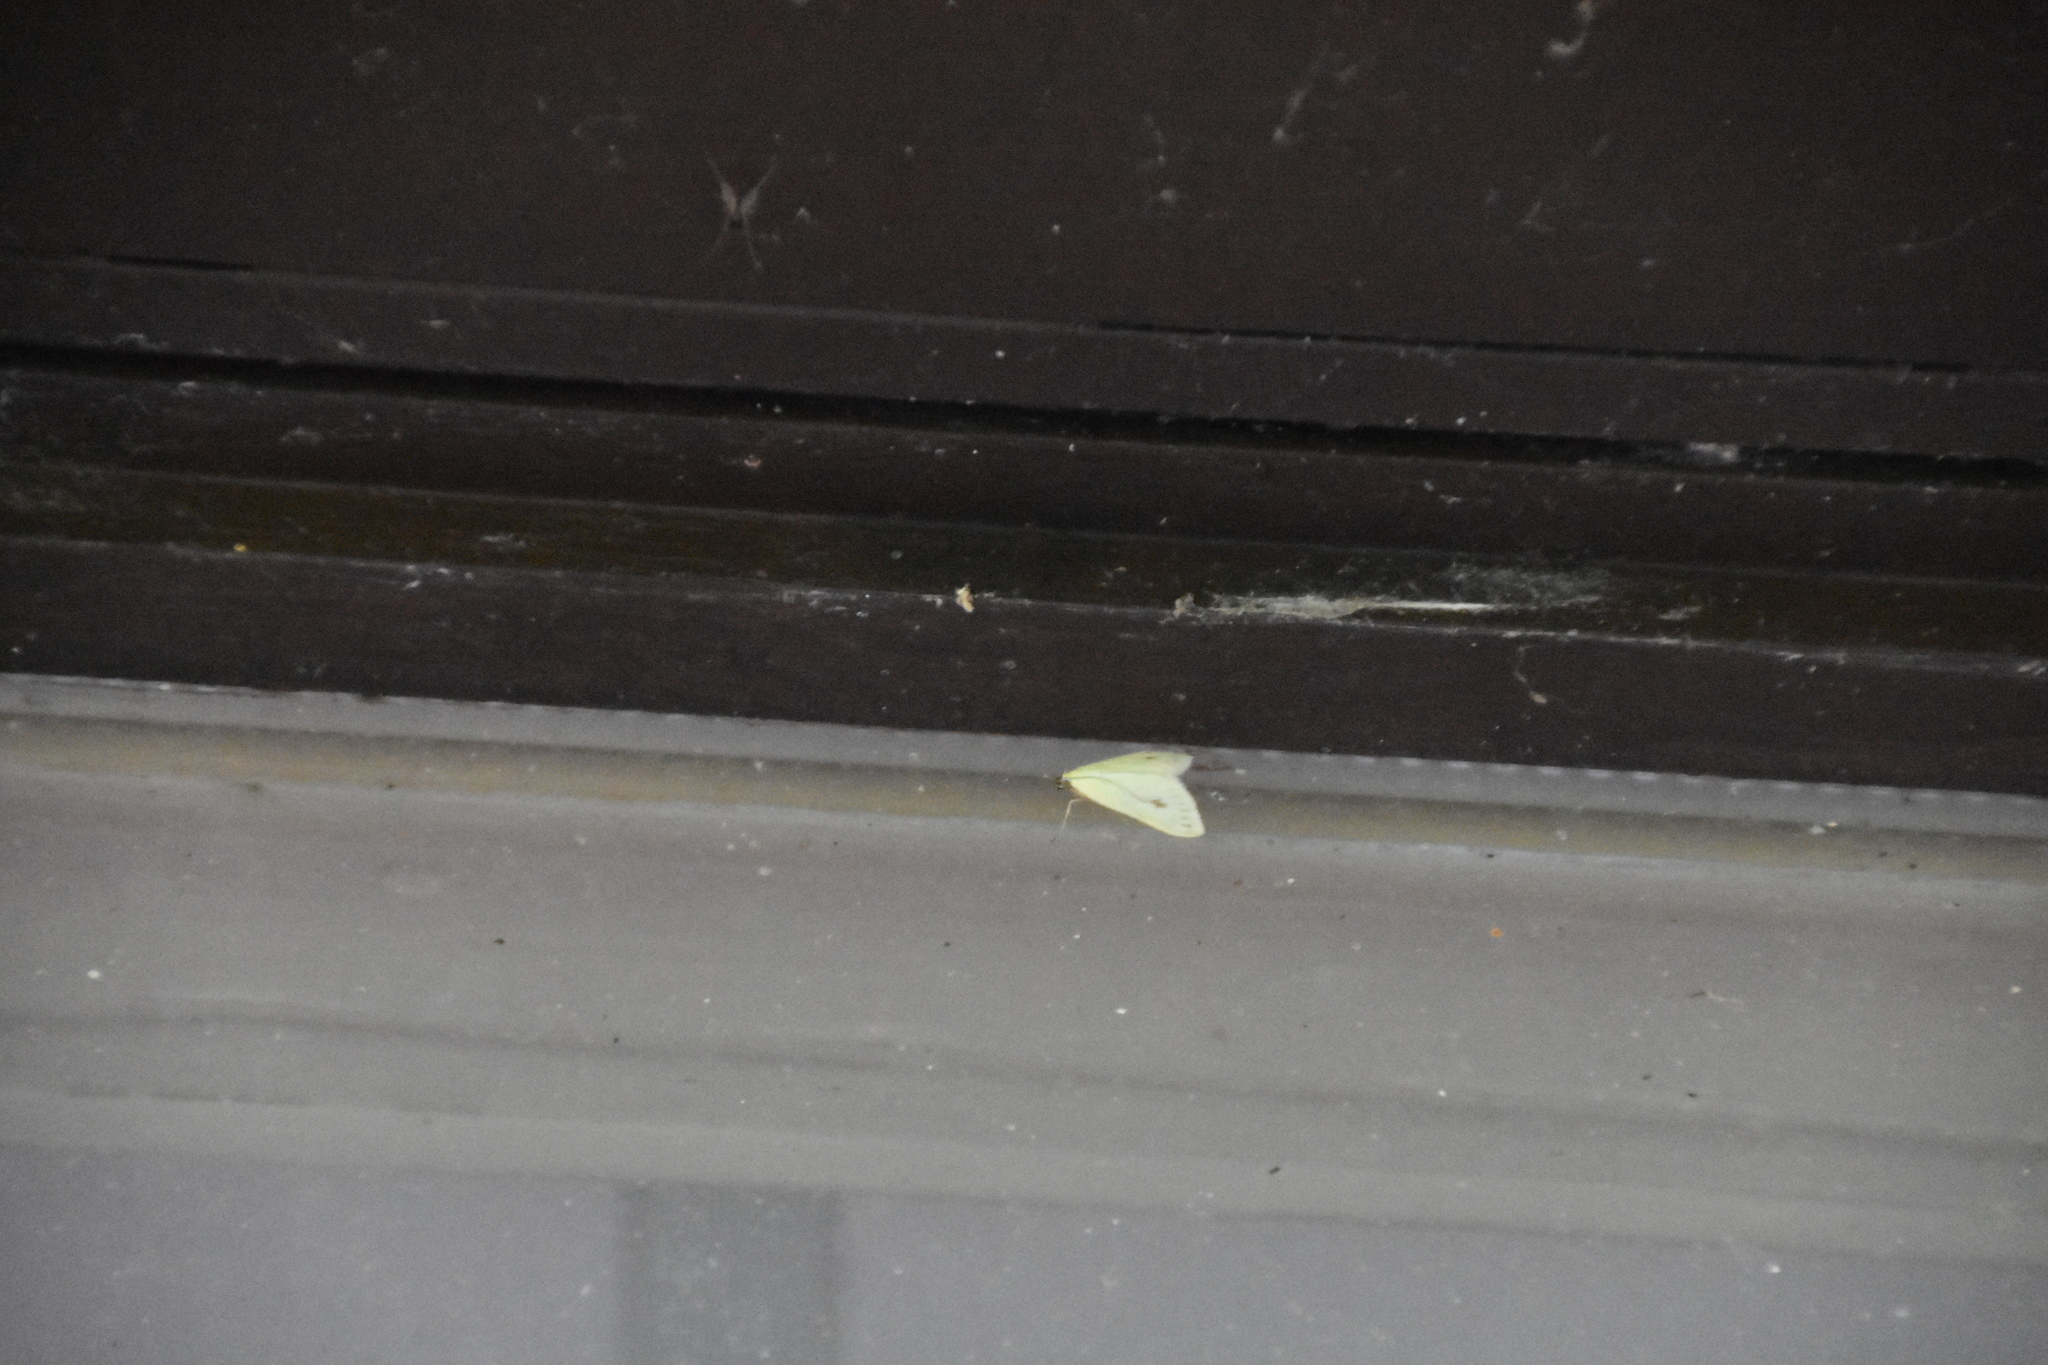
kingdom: Animalia
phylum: Arthropoda
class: Insecta
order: Lepidoptera
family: Crambidae
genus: Sitochroa
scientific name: Sitochroa palealis
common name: Greenish-yellow sitochroa moth
